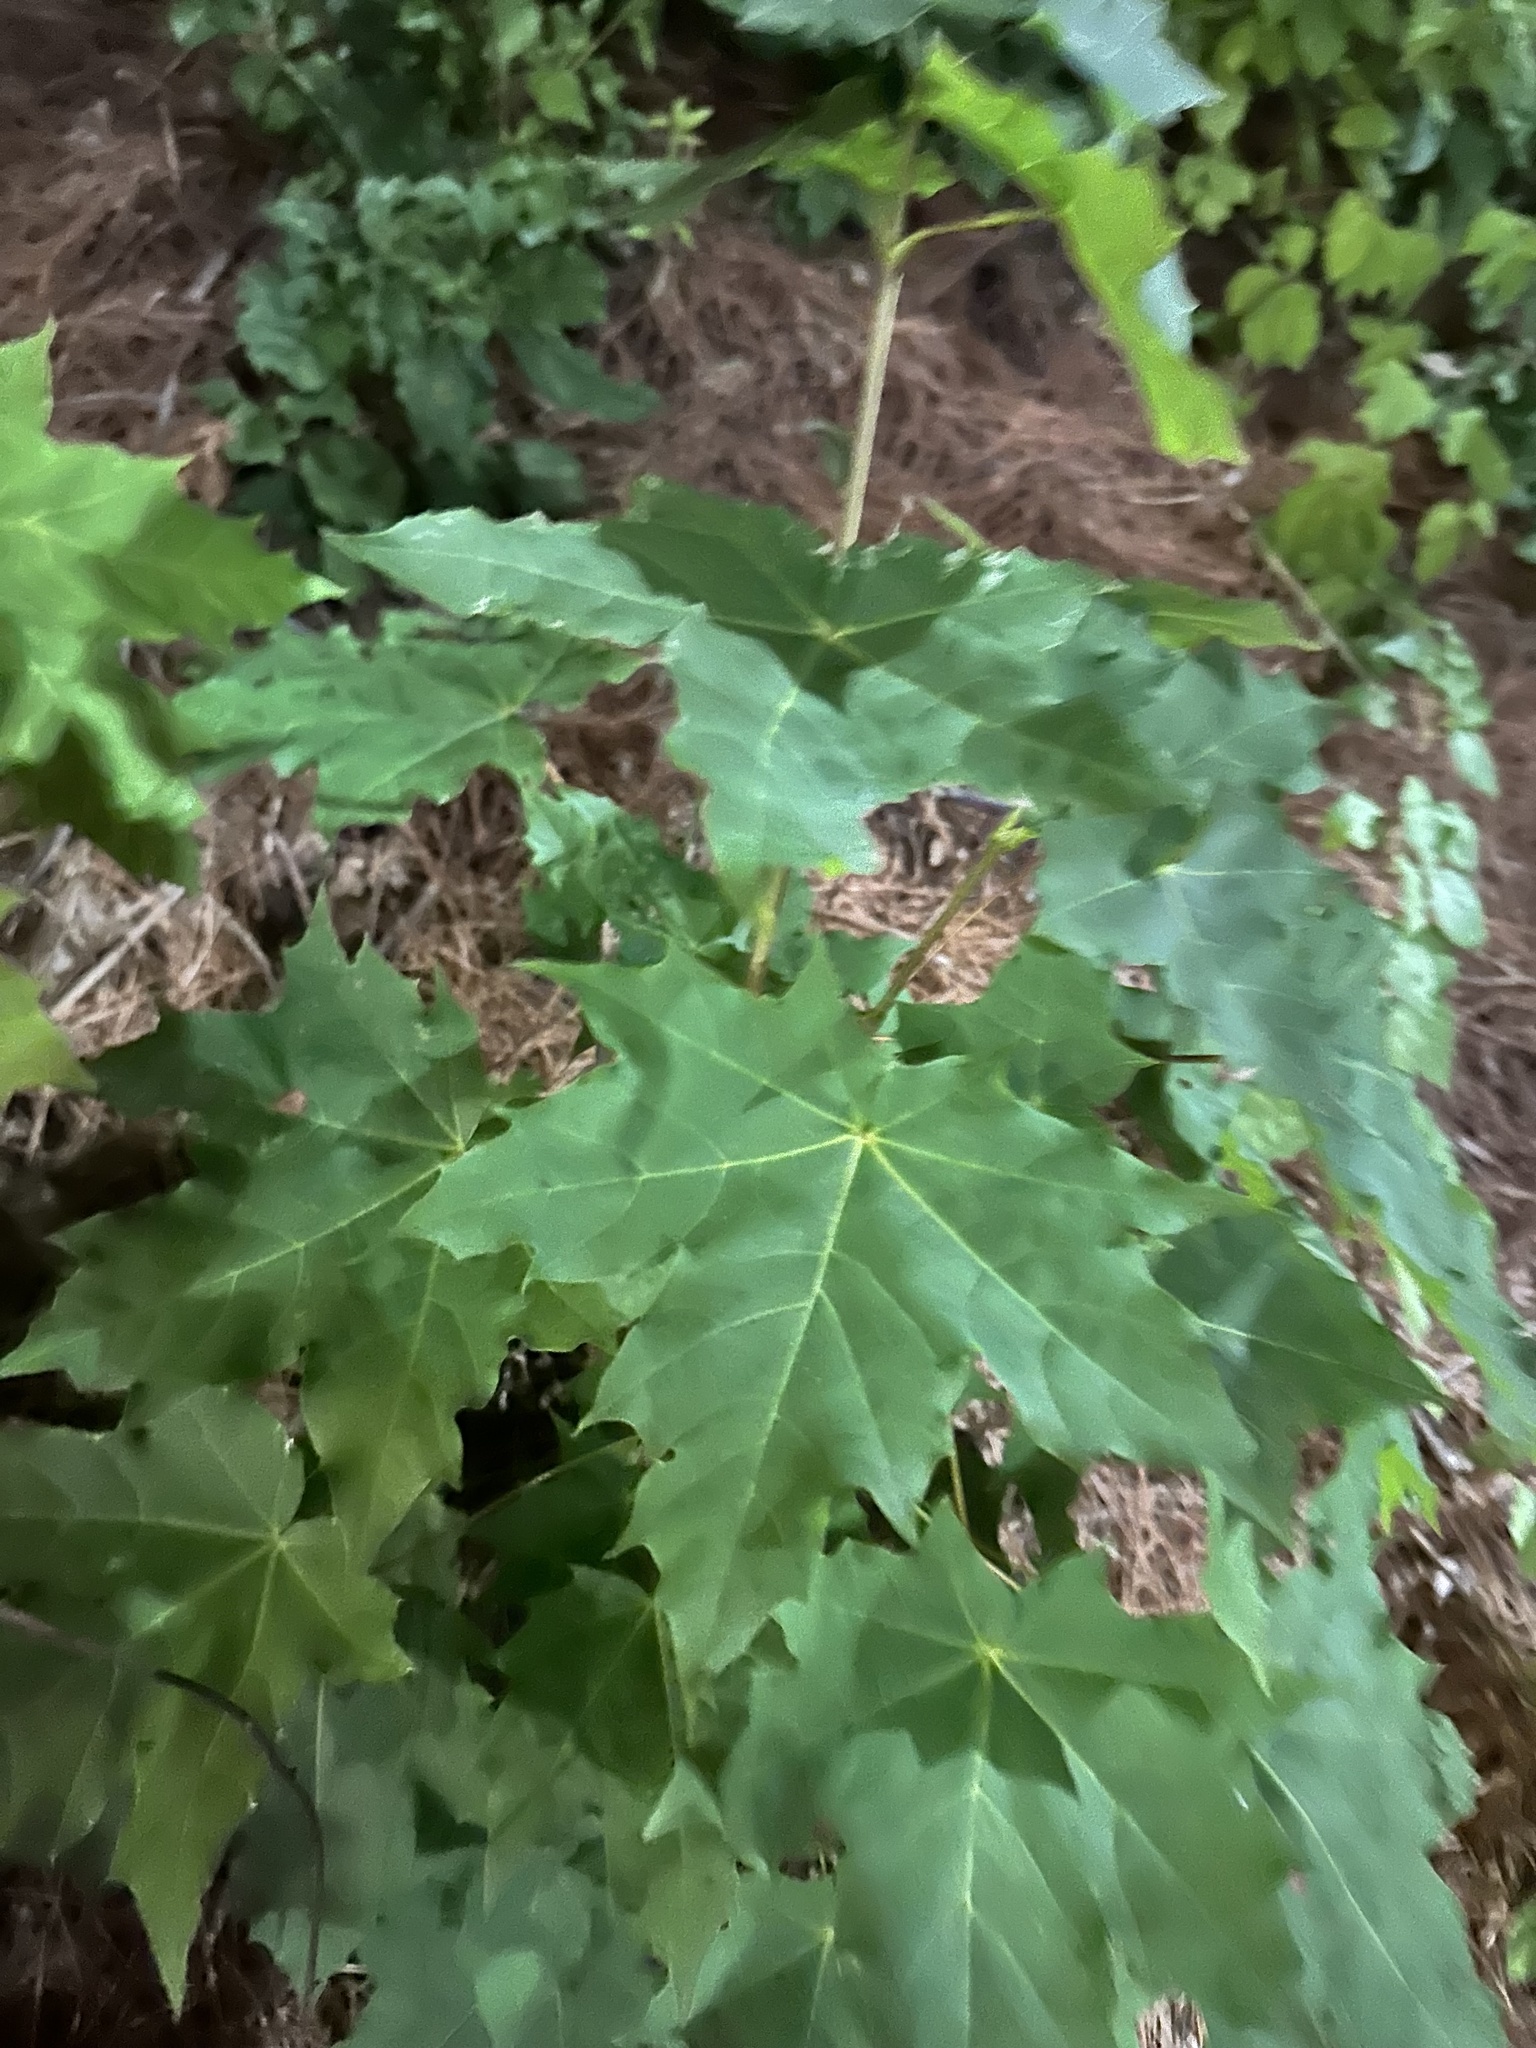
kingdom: Plantae
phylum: Tracheophyta
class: Magnoliopsida
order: Sapindales
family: Sapindaceae
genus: Acer
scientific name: Acer platanoides
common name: Norway maple
